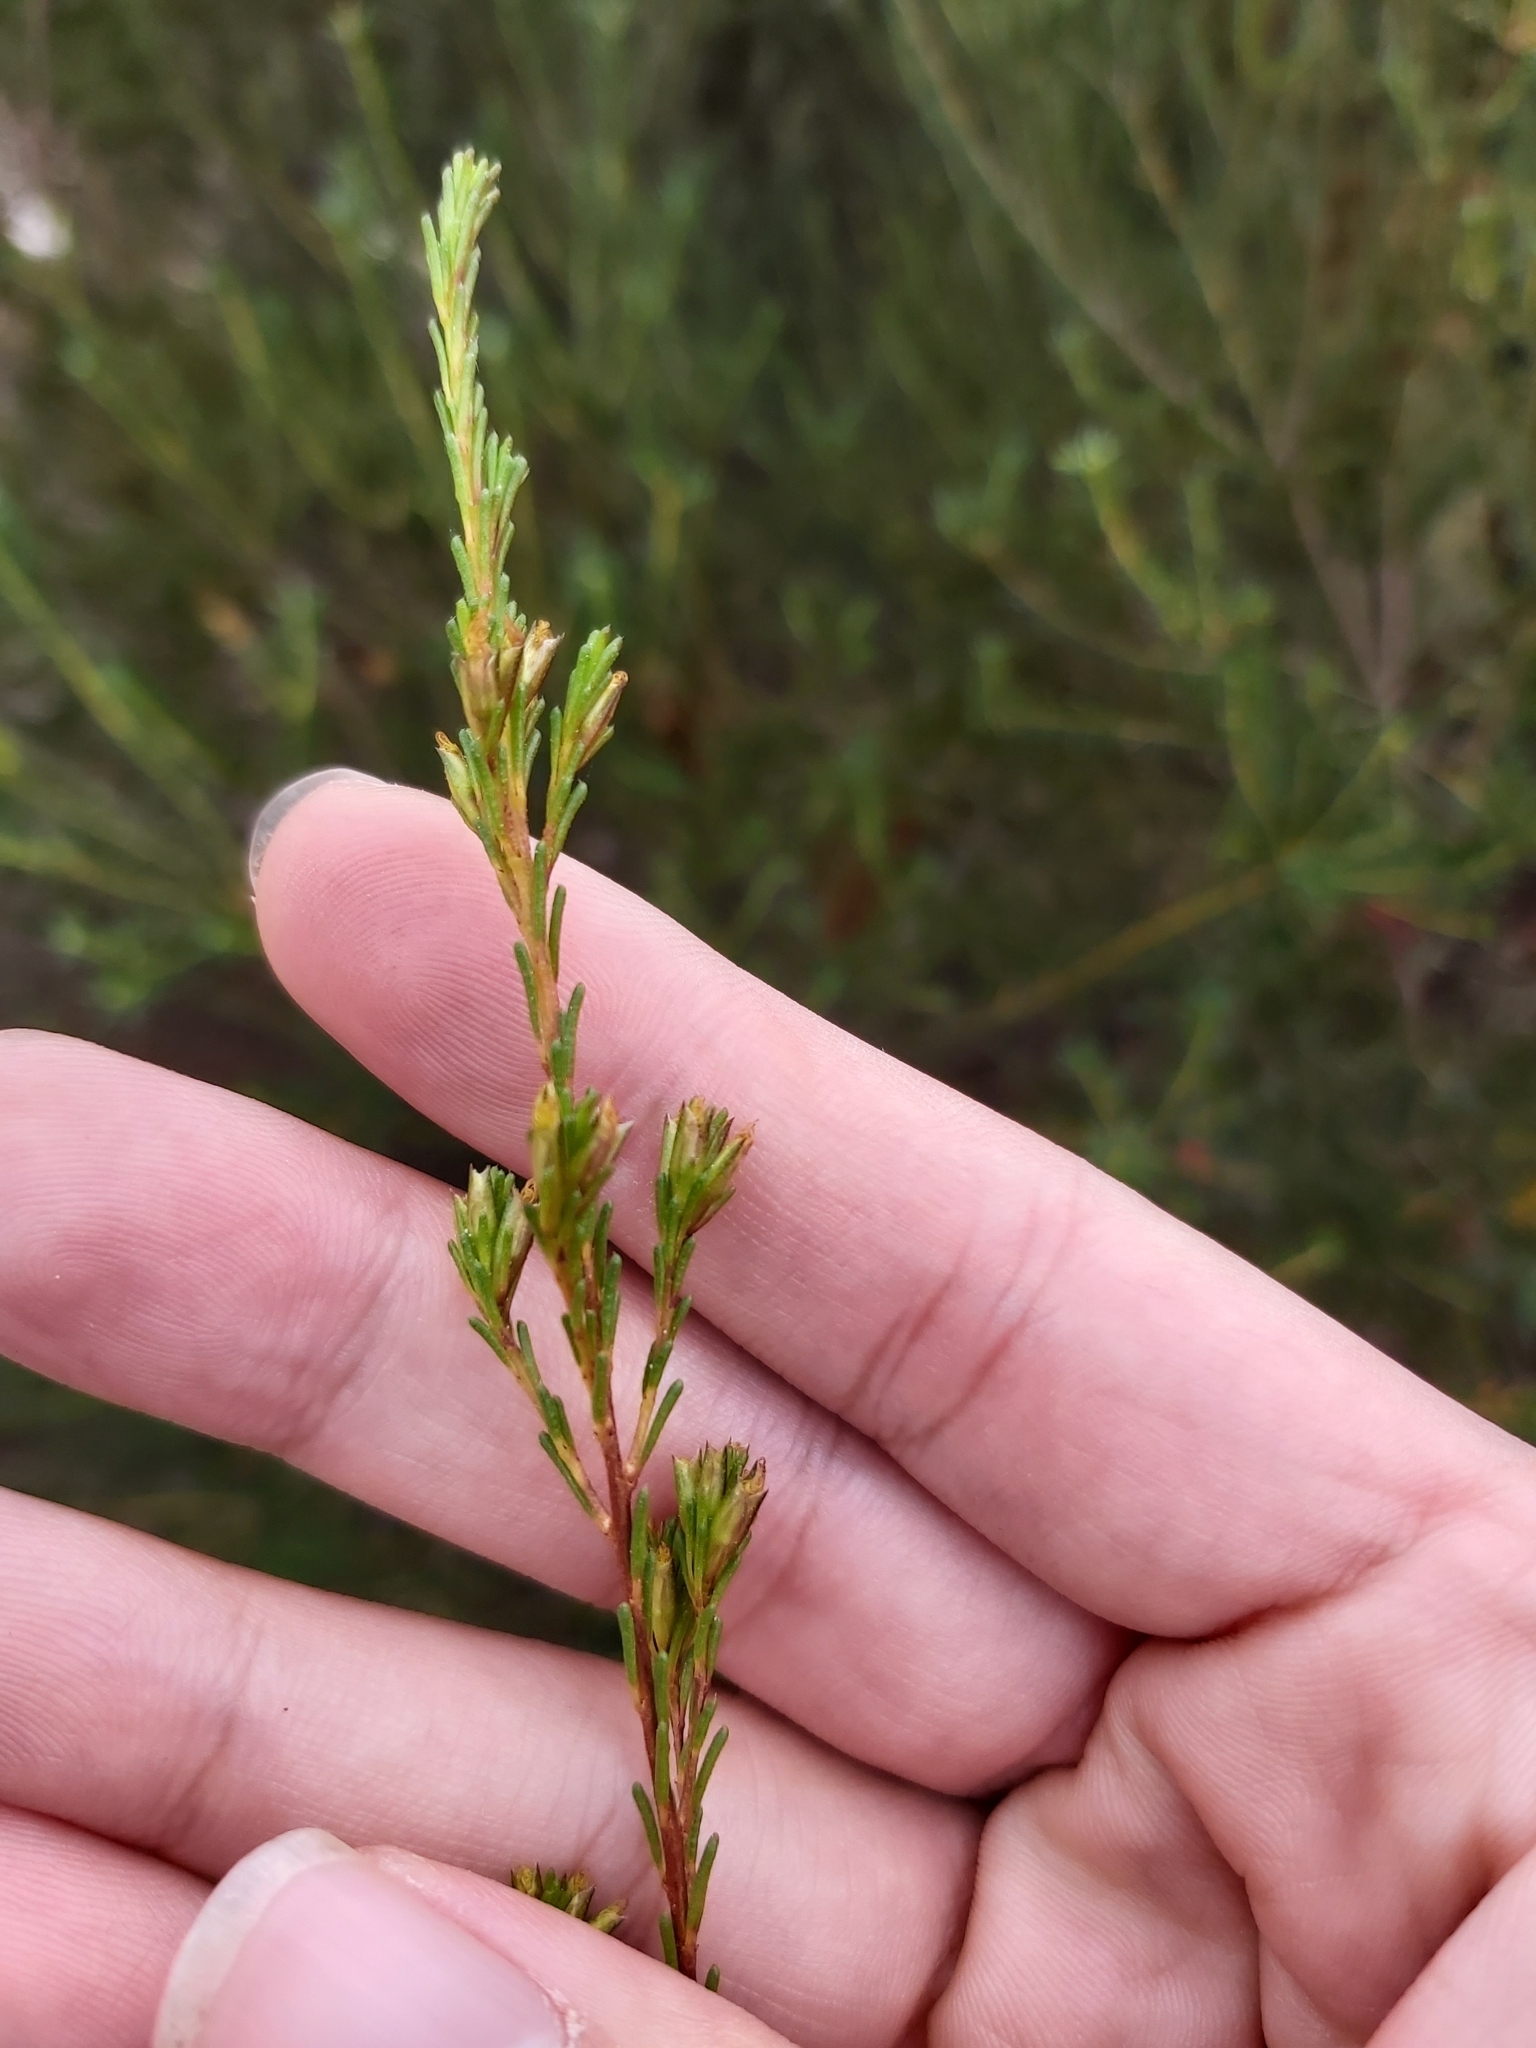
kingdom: Plantae
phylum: Tracheophyta
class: Magnoliopsida
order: Myrtales
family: Myrtaceae
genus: Calytrix
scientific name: Calytrix tetragona
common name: Common fringe myrtle
